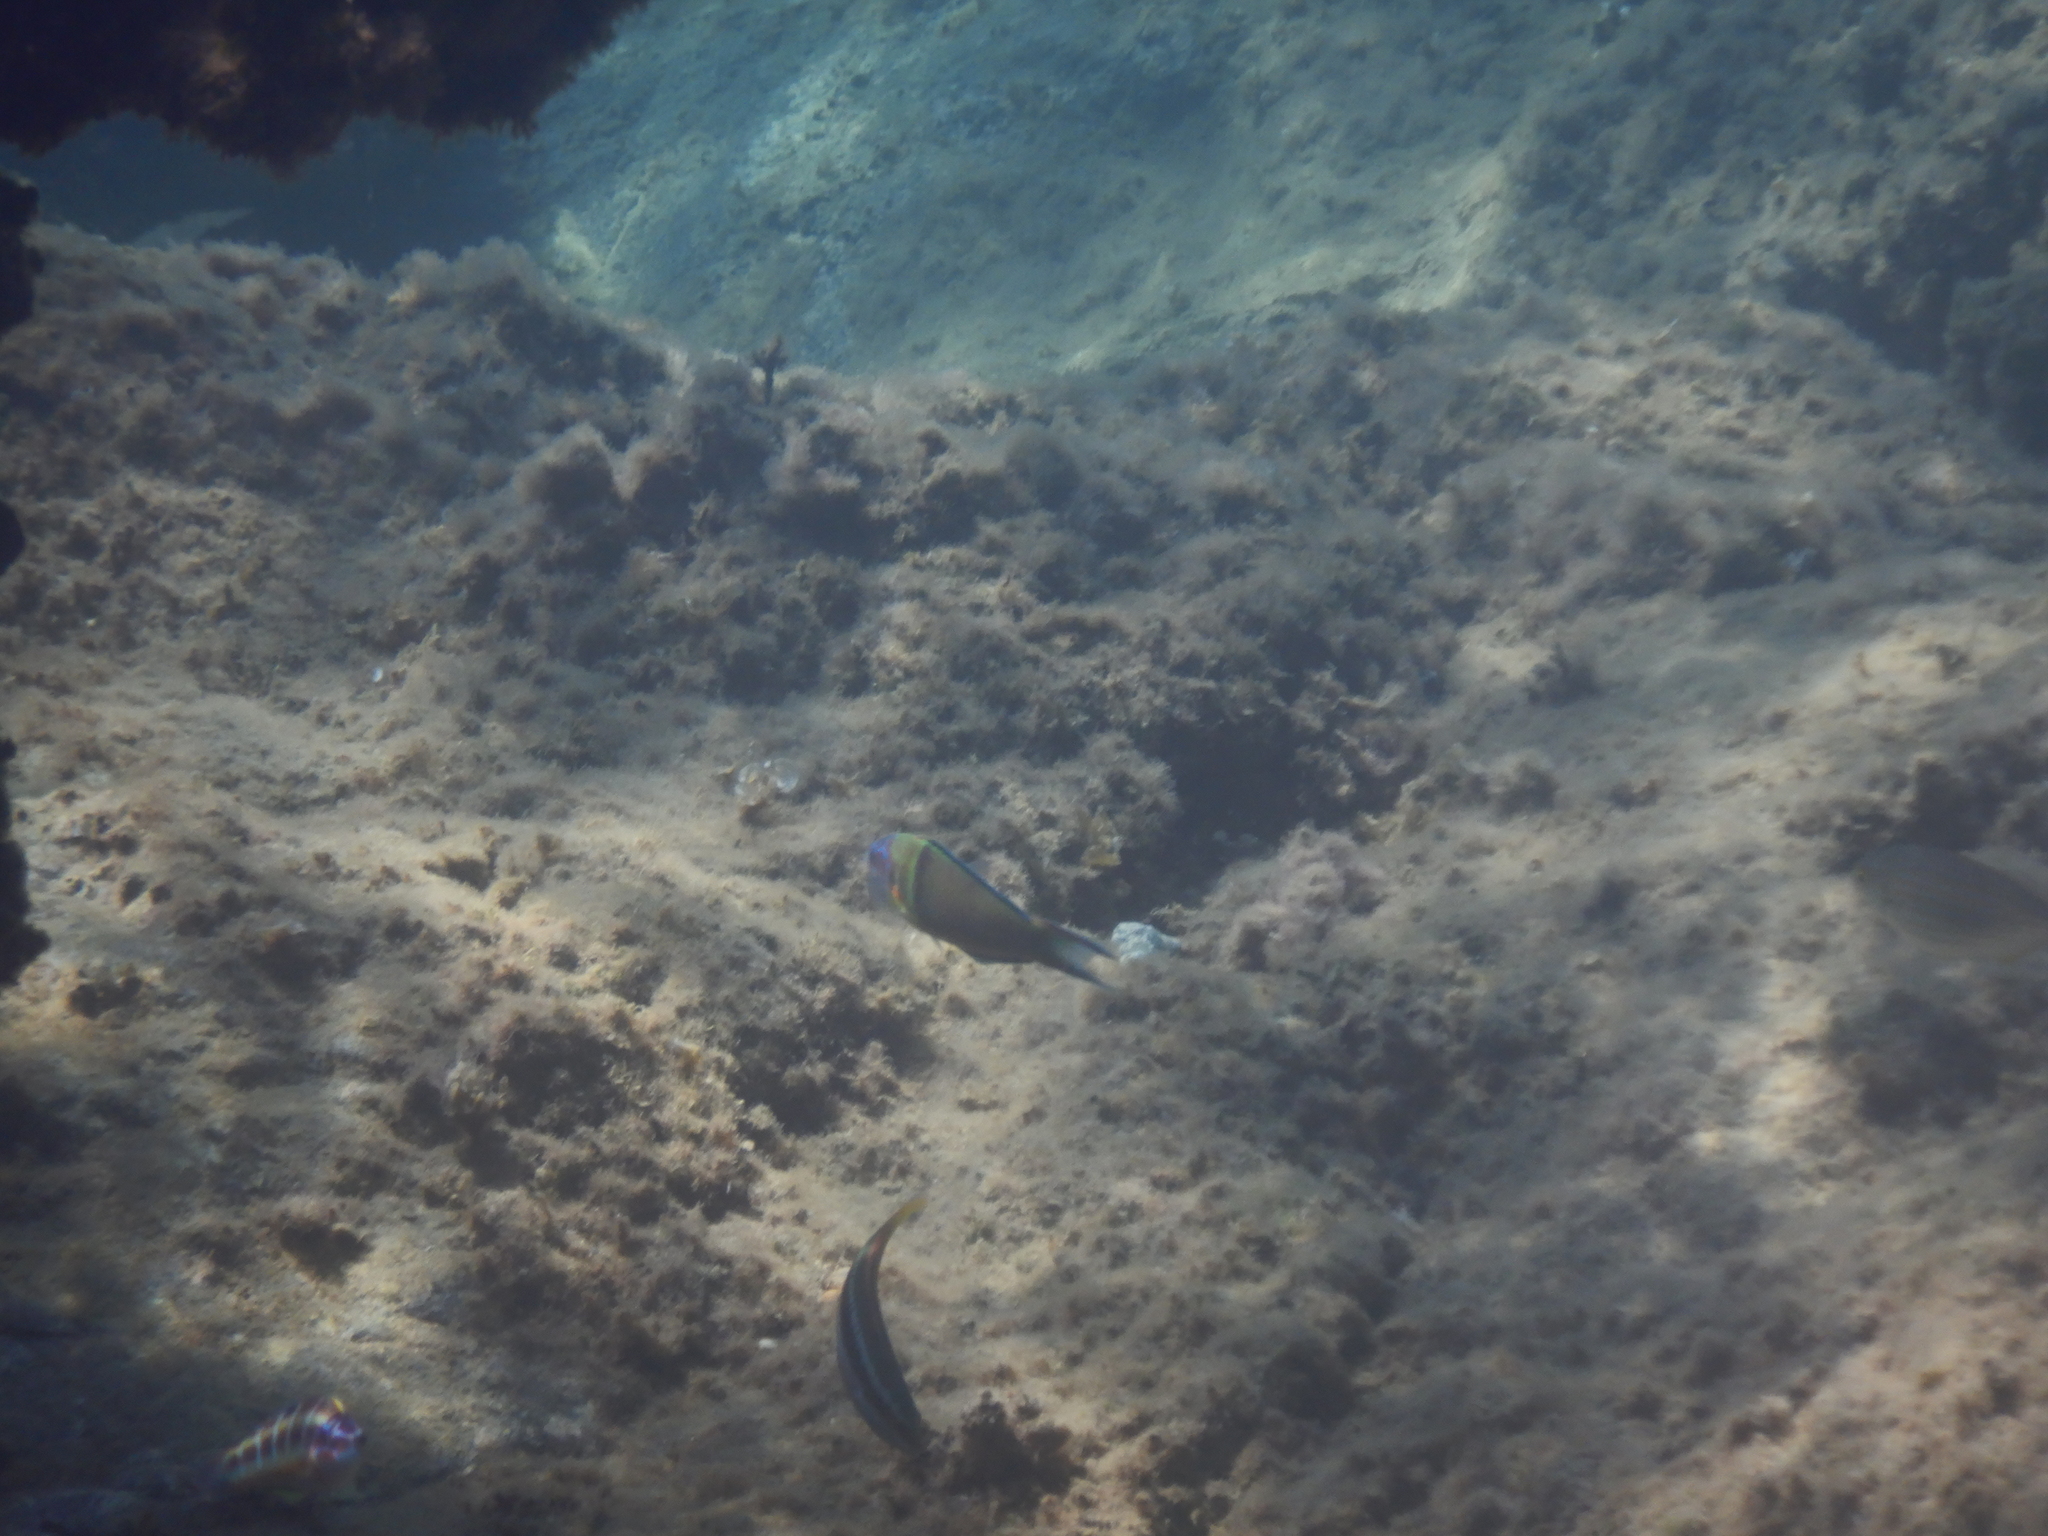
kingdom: Animalia
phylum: Chordata
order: Perciformes
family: Labridae
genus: Thalassoma
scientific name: Thalassoma pavo
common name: Ornate wrasse
